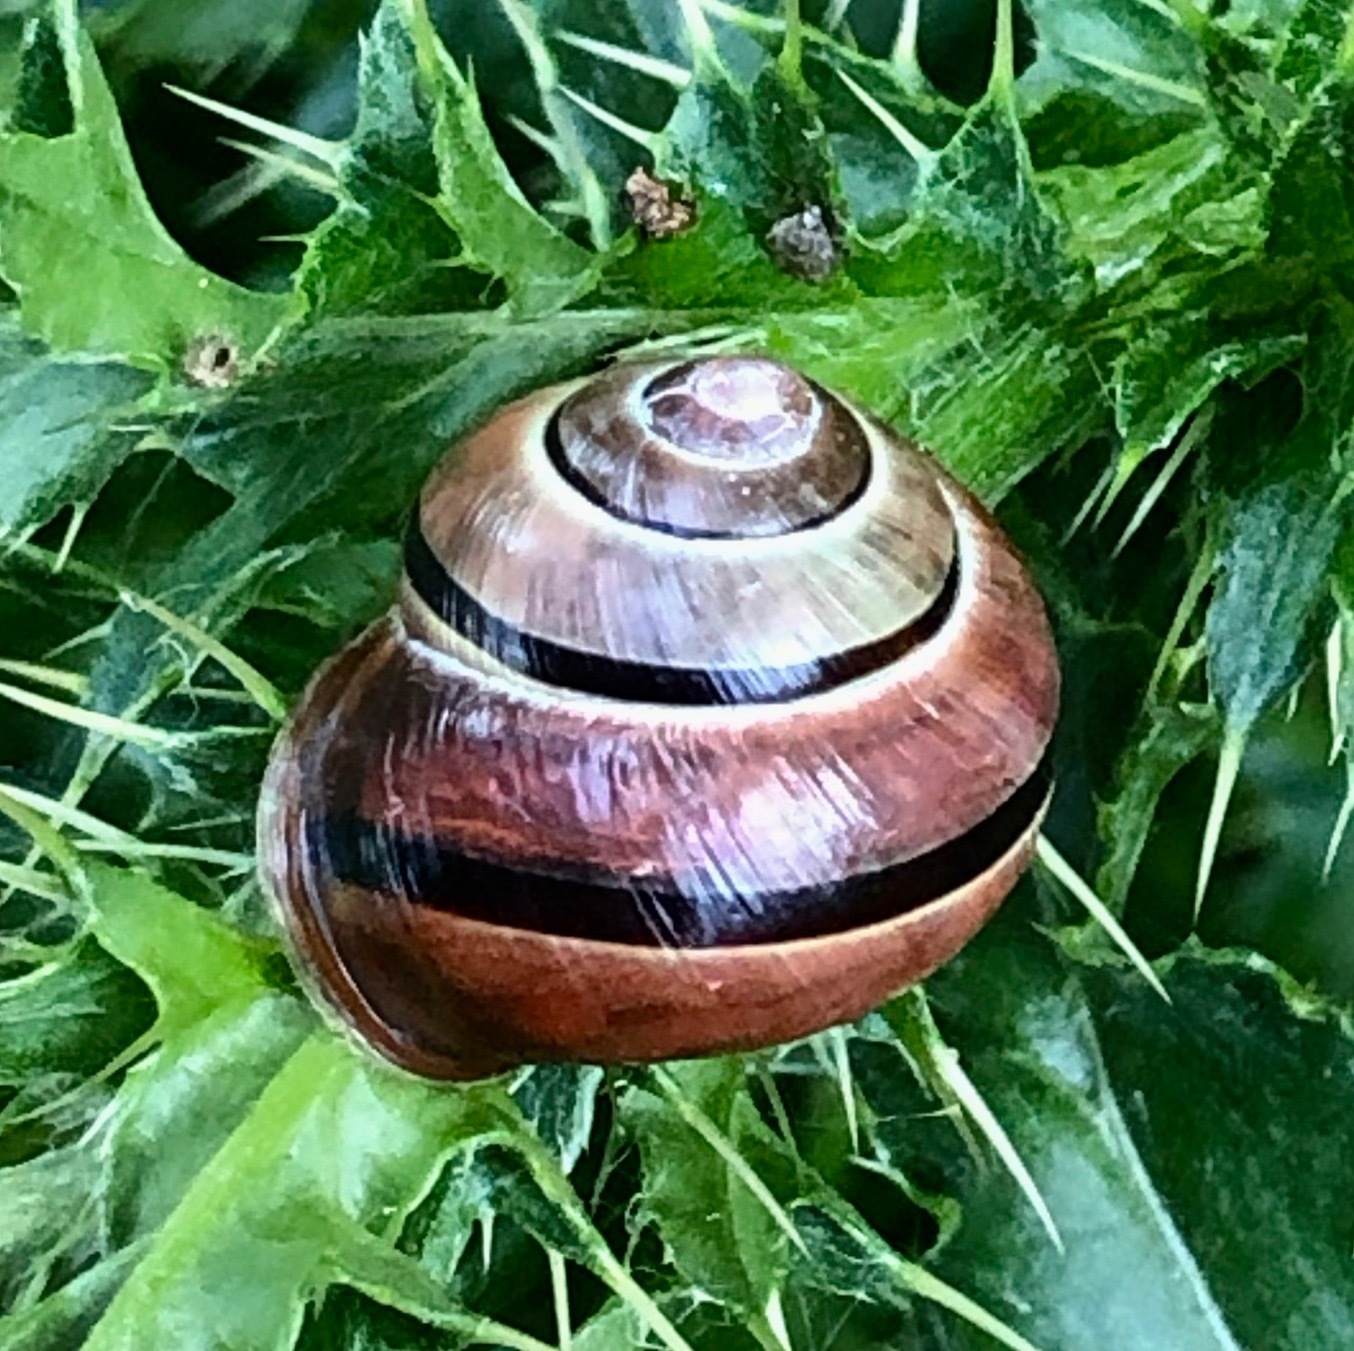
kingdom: Animalia
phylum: Mollusca
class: Gastropoda
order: Stylommatophora
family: Helicidae
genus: Cepaea
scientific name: Cepaea nemoralis
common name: Grovesnail
